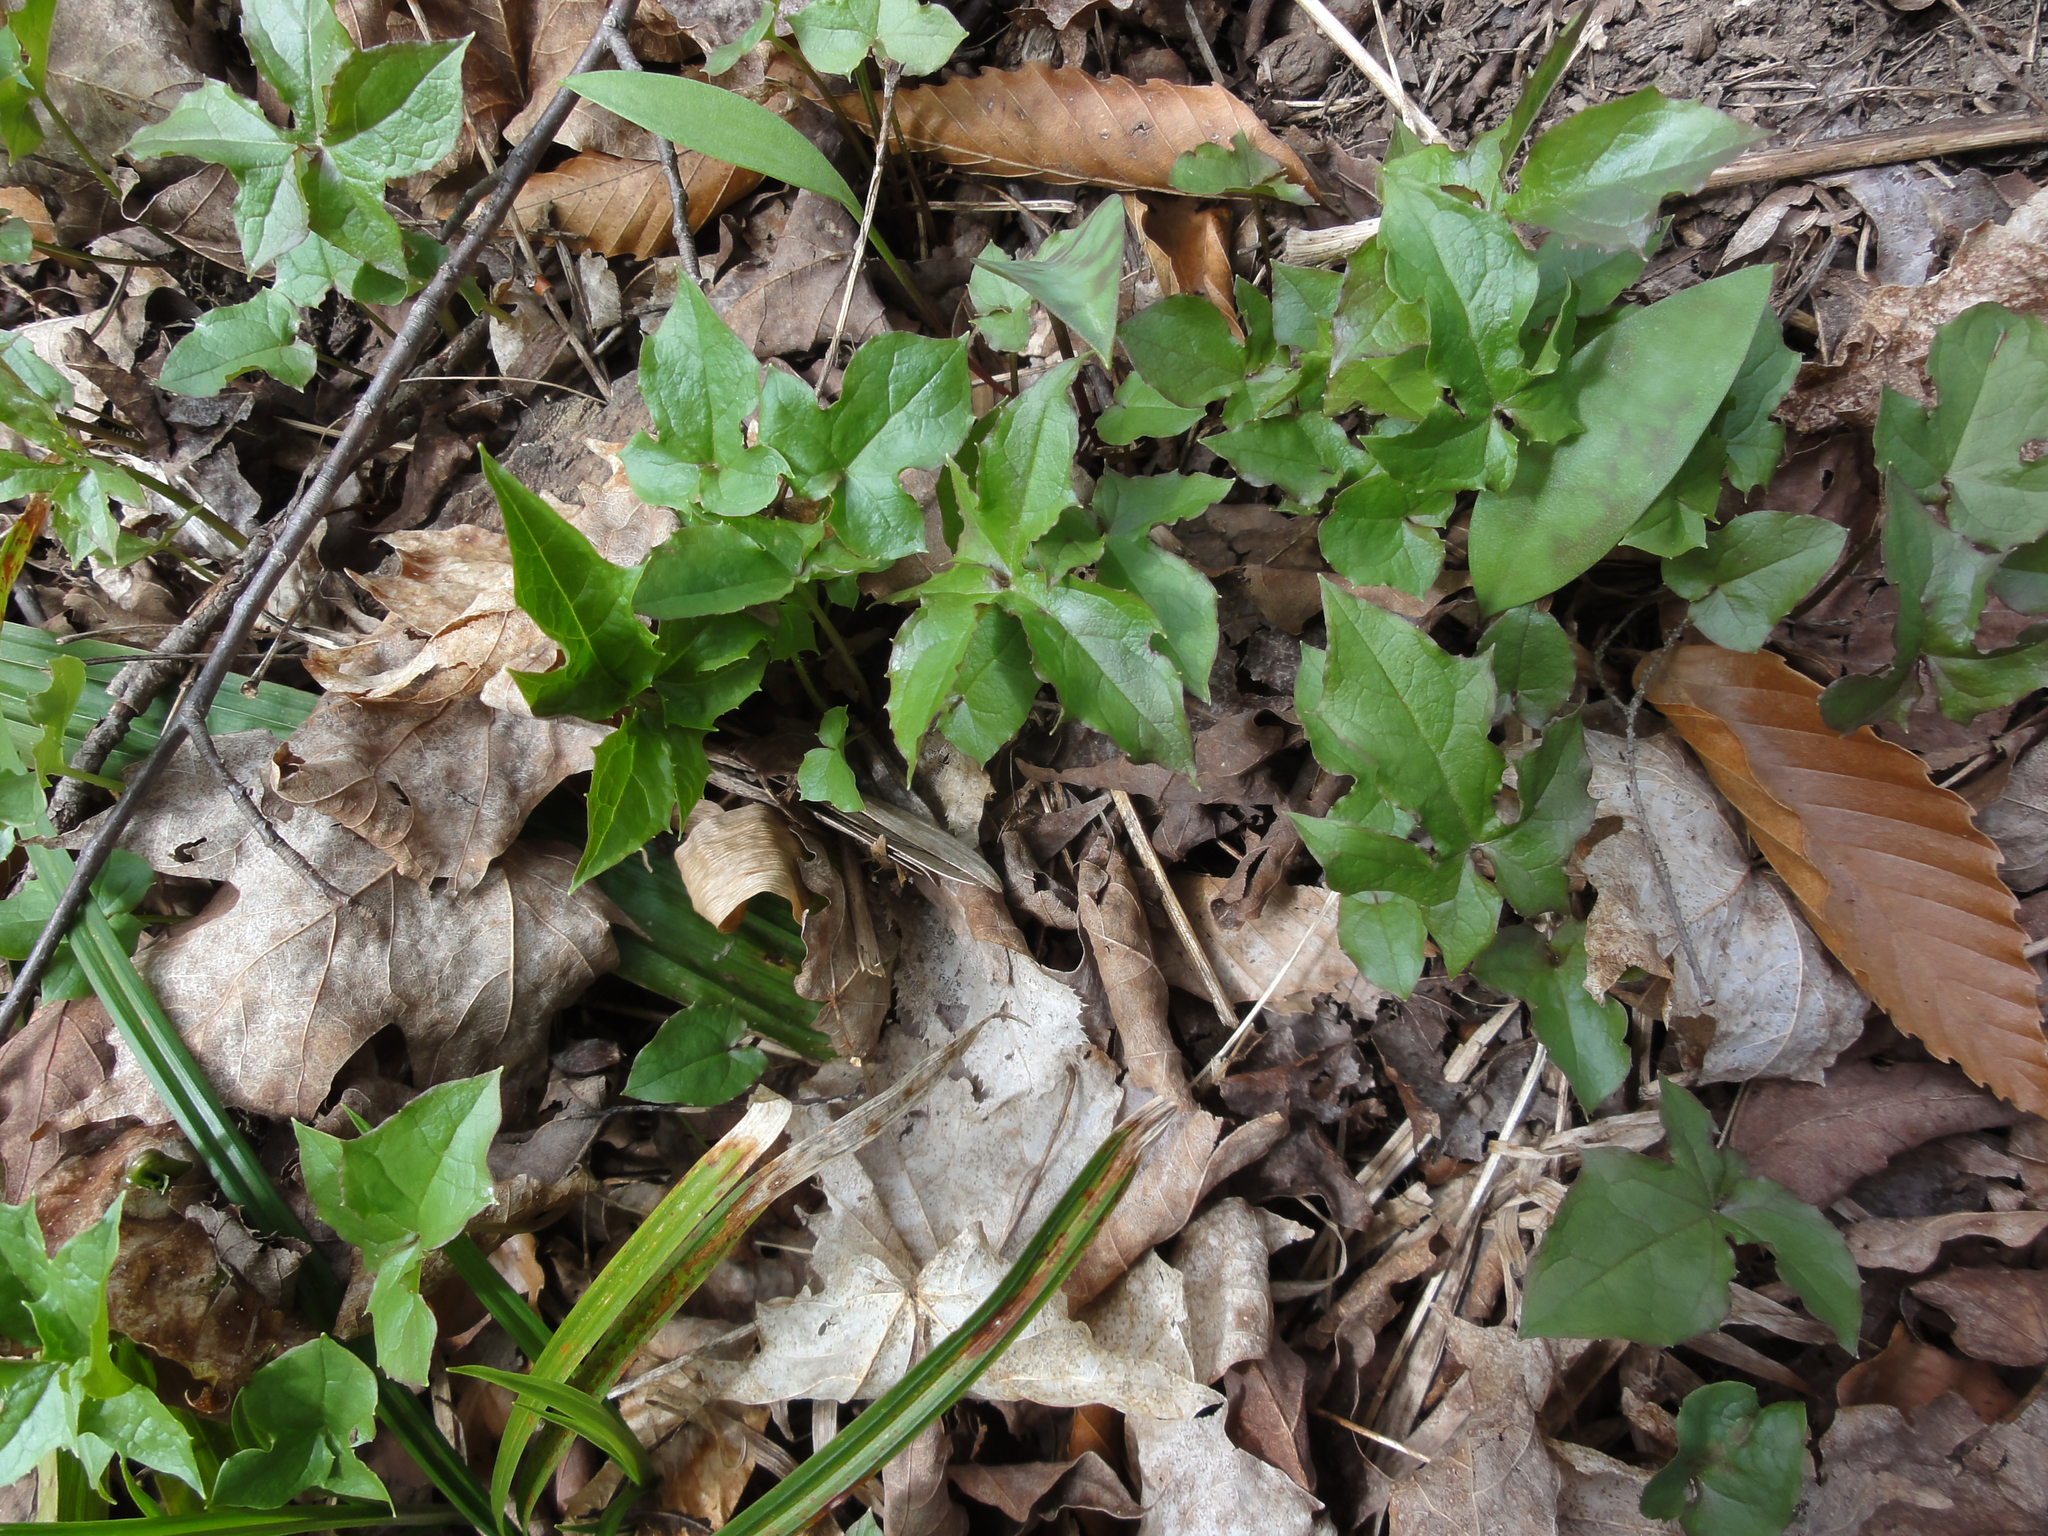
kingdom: Plantae
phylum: Tracheophyta
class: Magnoliopsida
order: Asterales
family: Asteraceae
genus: Nabalus
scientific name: Nabalus
